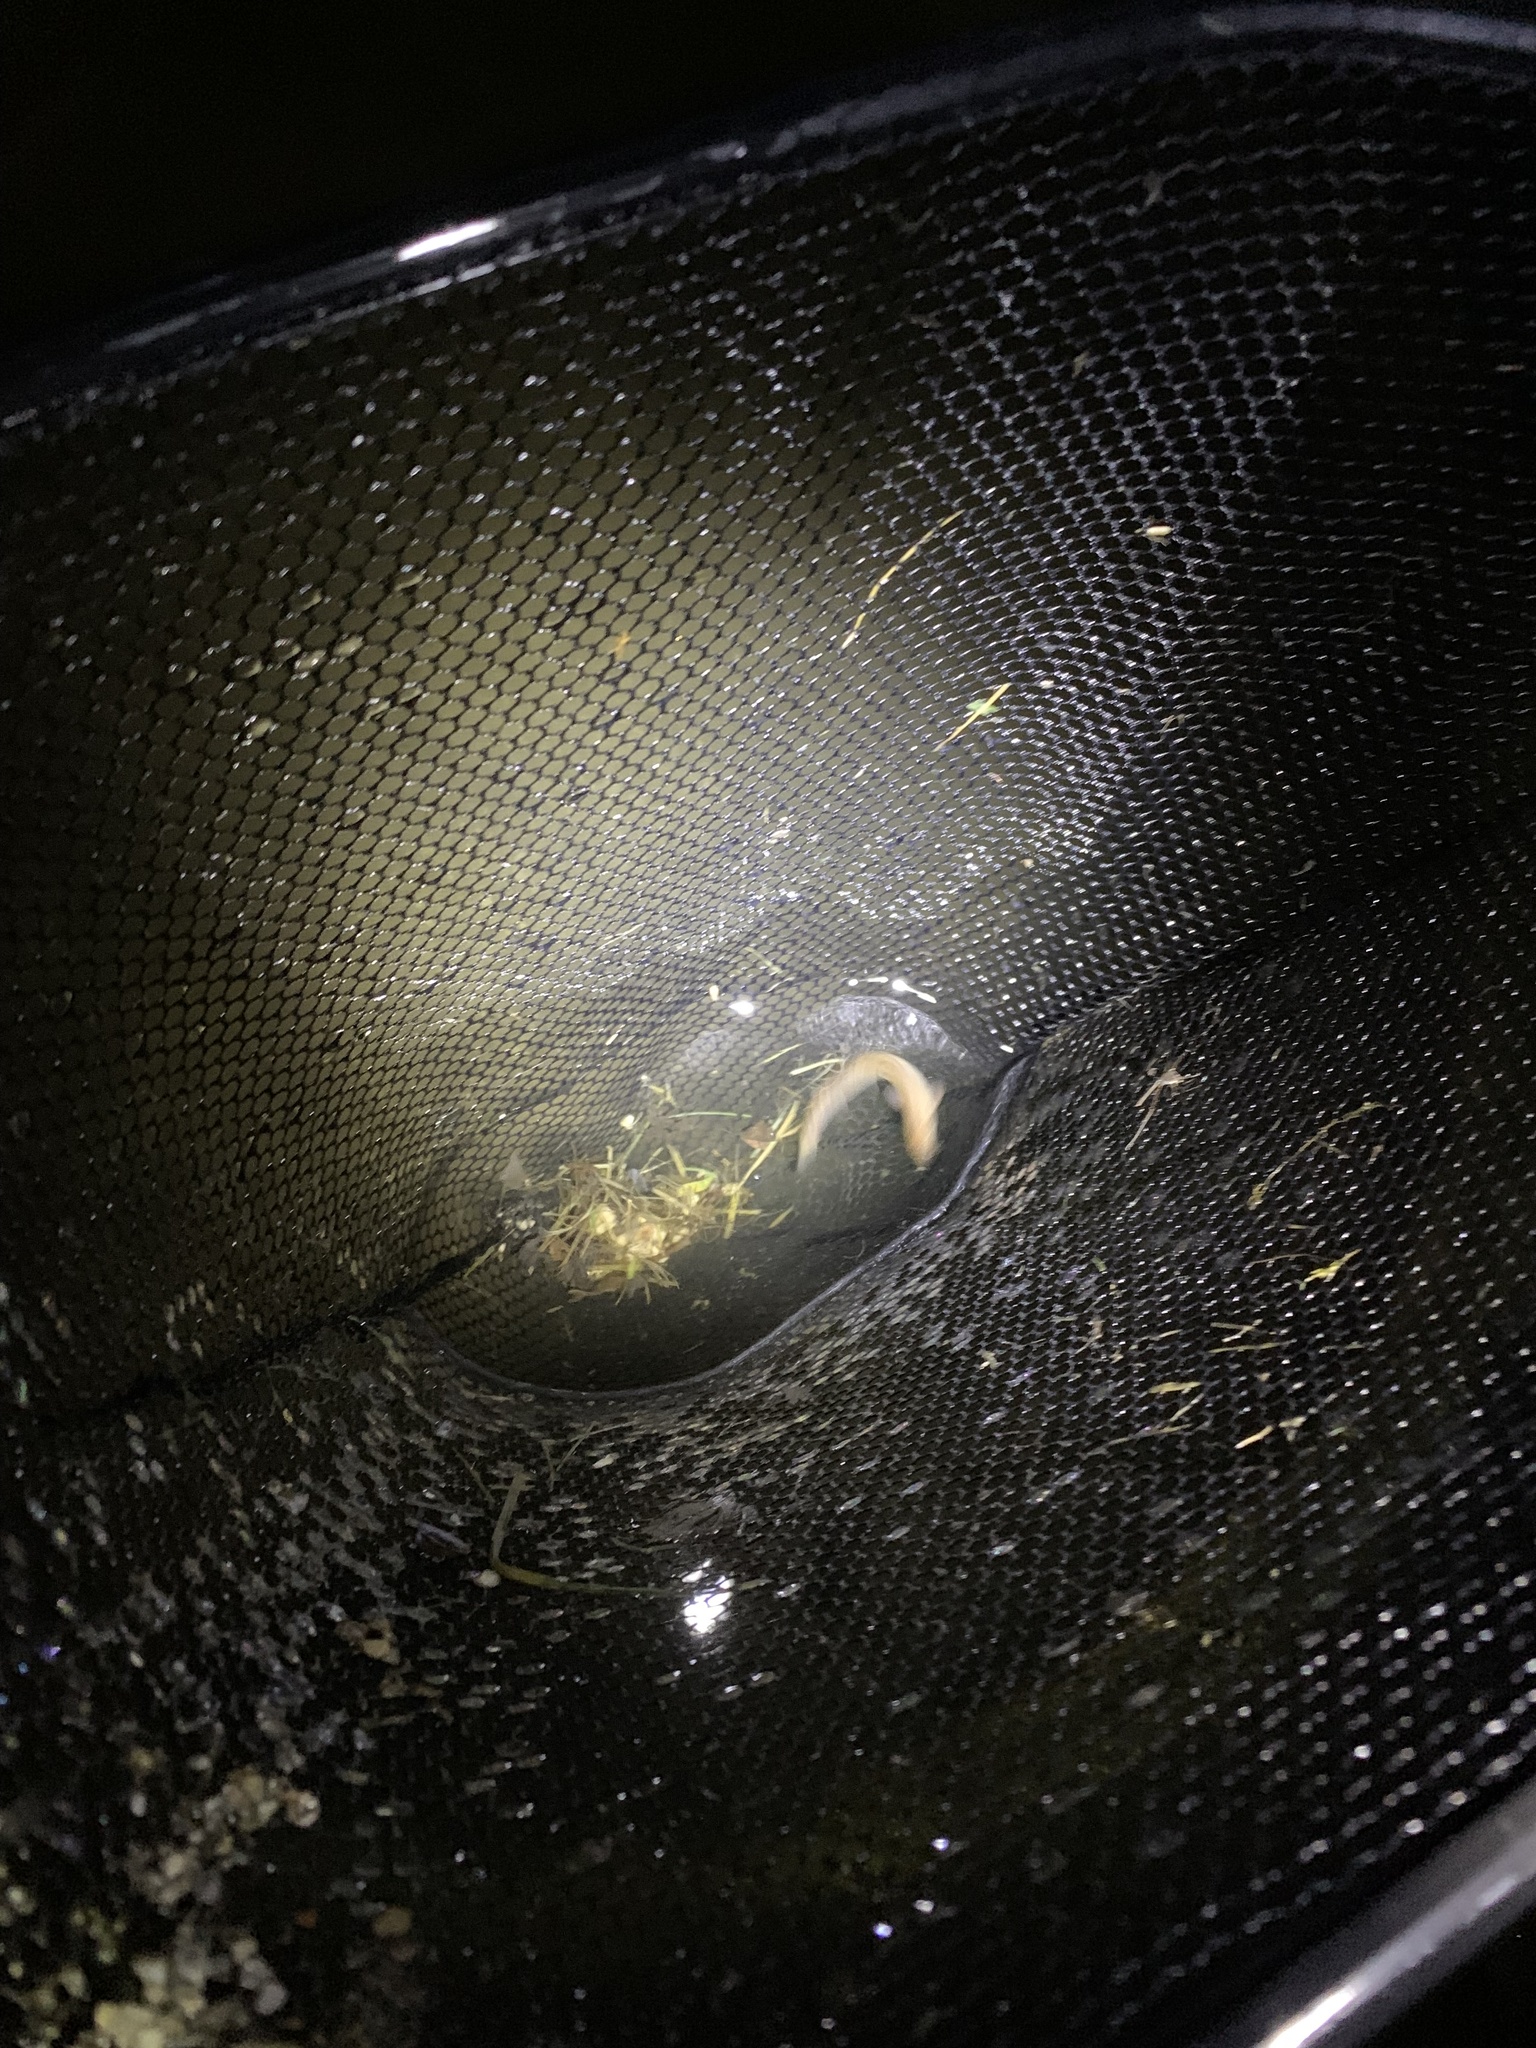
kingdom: Animalia
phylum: Chordata
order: Cypriniformes
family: Cobitidae
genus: Misgurnus
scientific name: Misgurnus anguillicaudatus
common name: Oriental weatherfish
